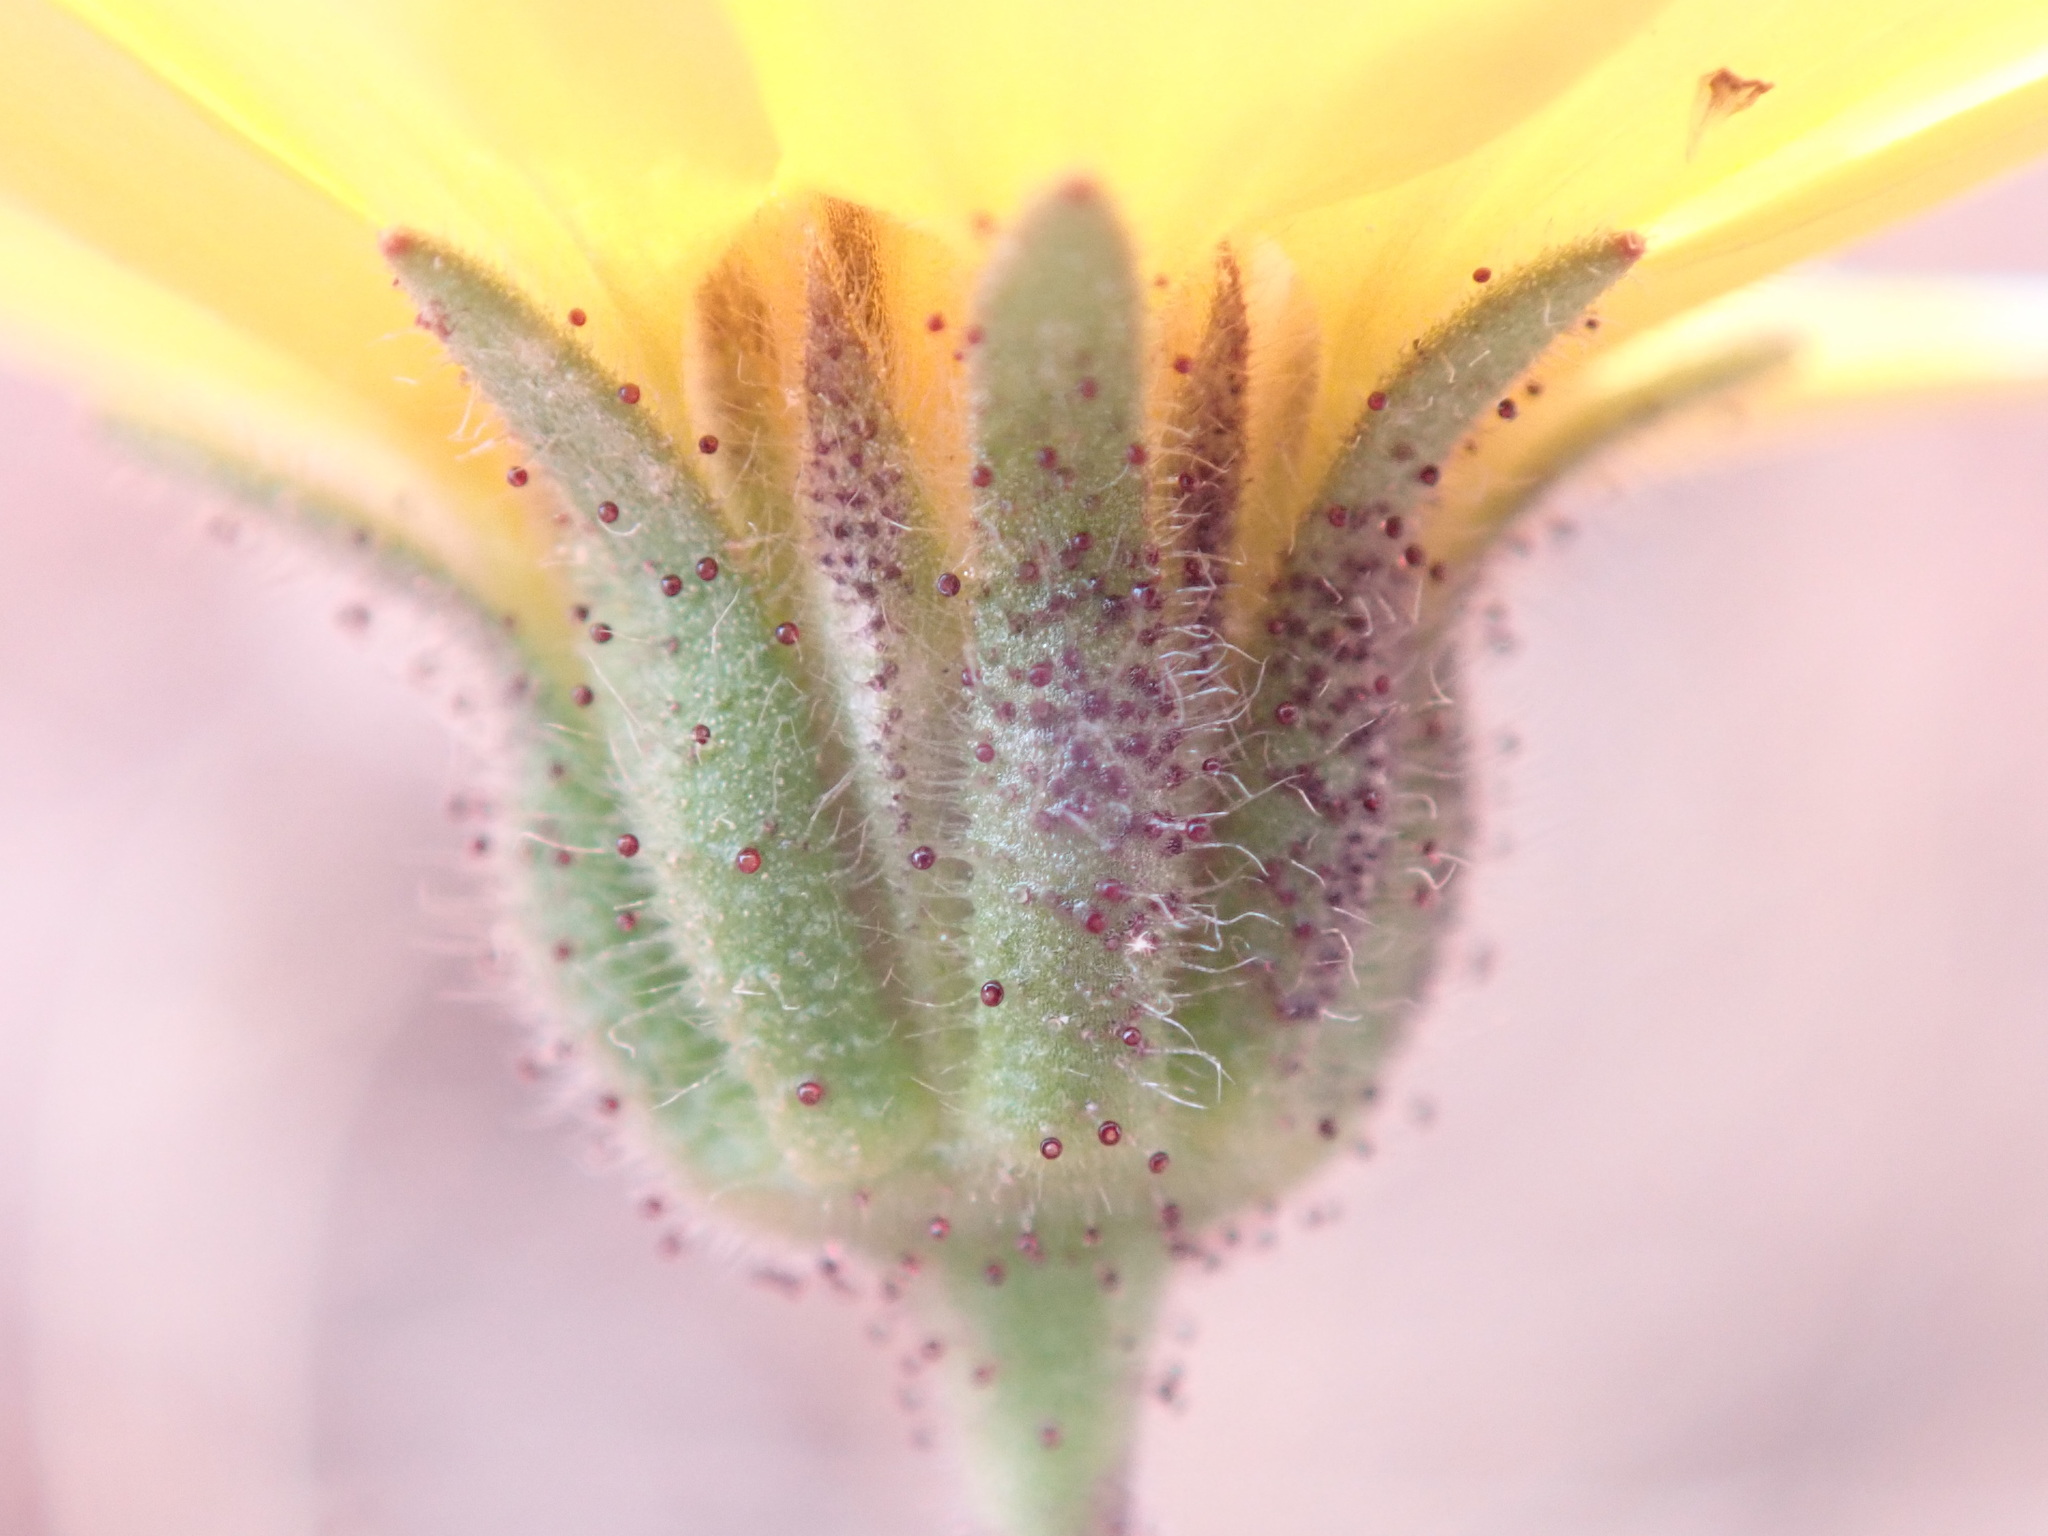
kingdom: Plantae
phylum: Tracheophyta
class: Magnoliopsida
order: Asterales
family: Asteraceae
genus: Layia
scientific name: Layia platyglossa
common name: Tidy-tips
